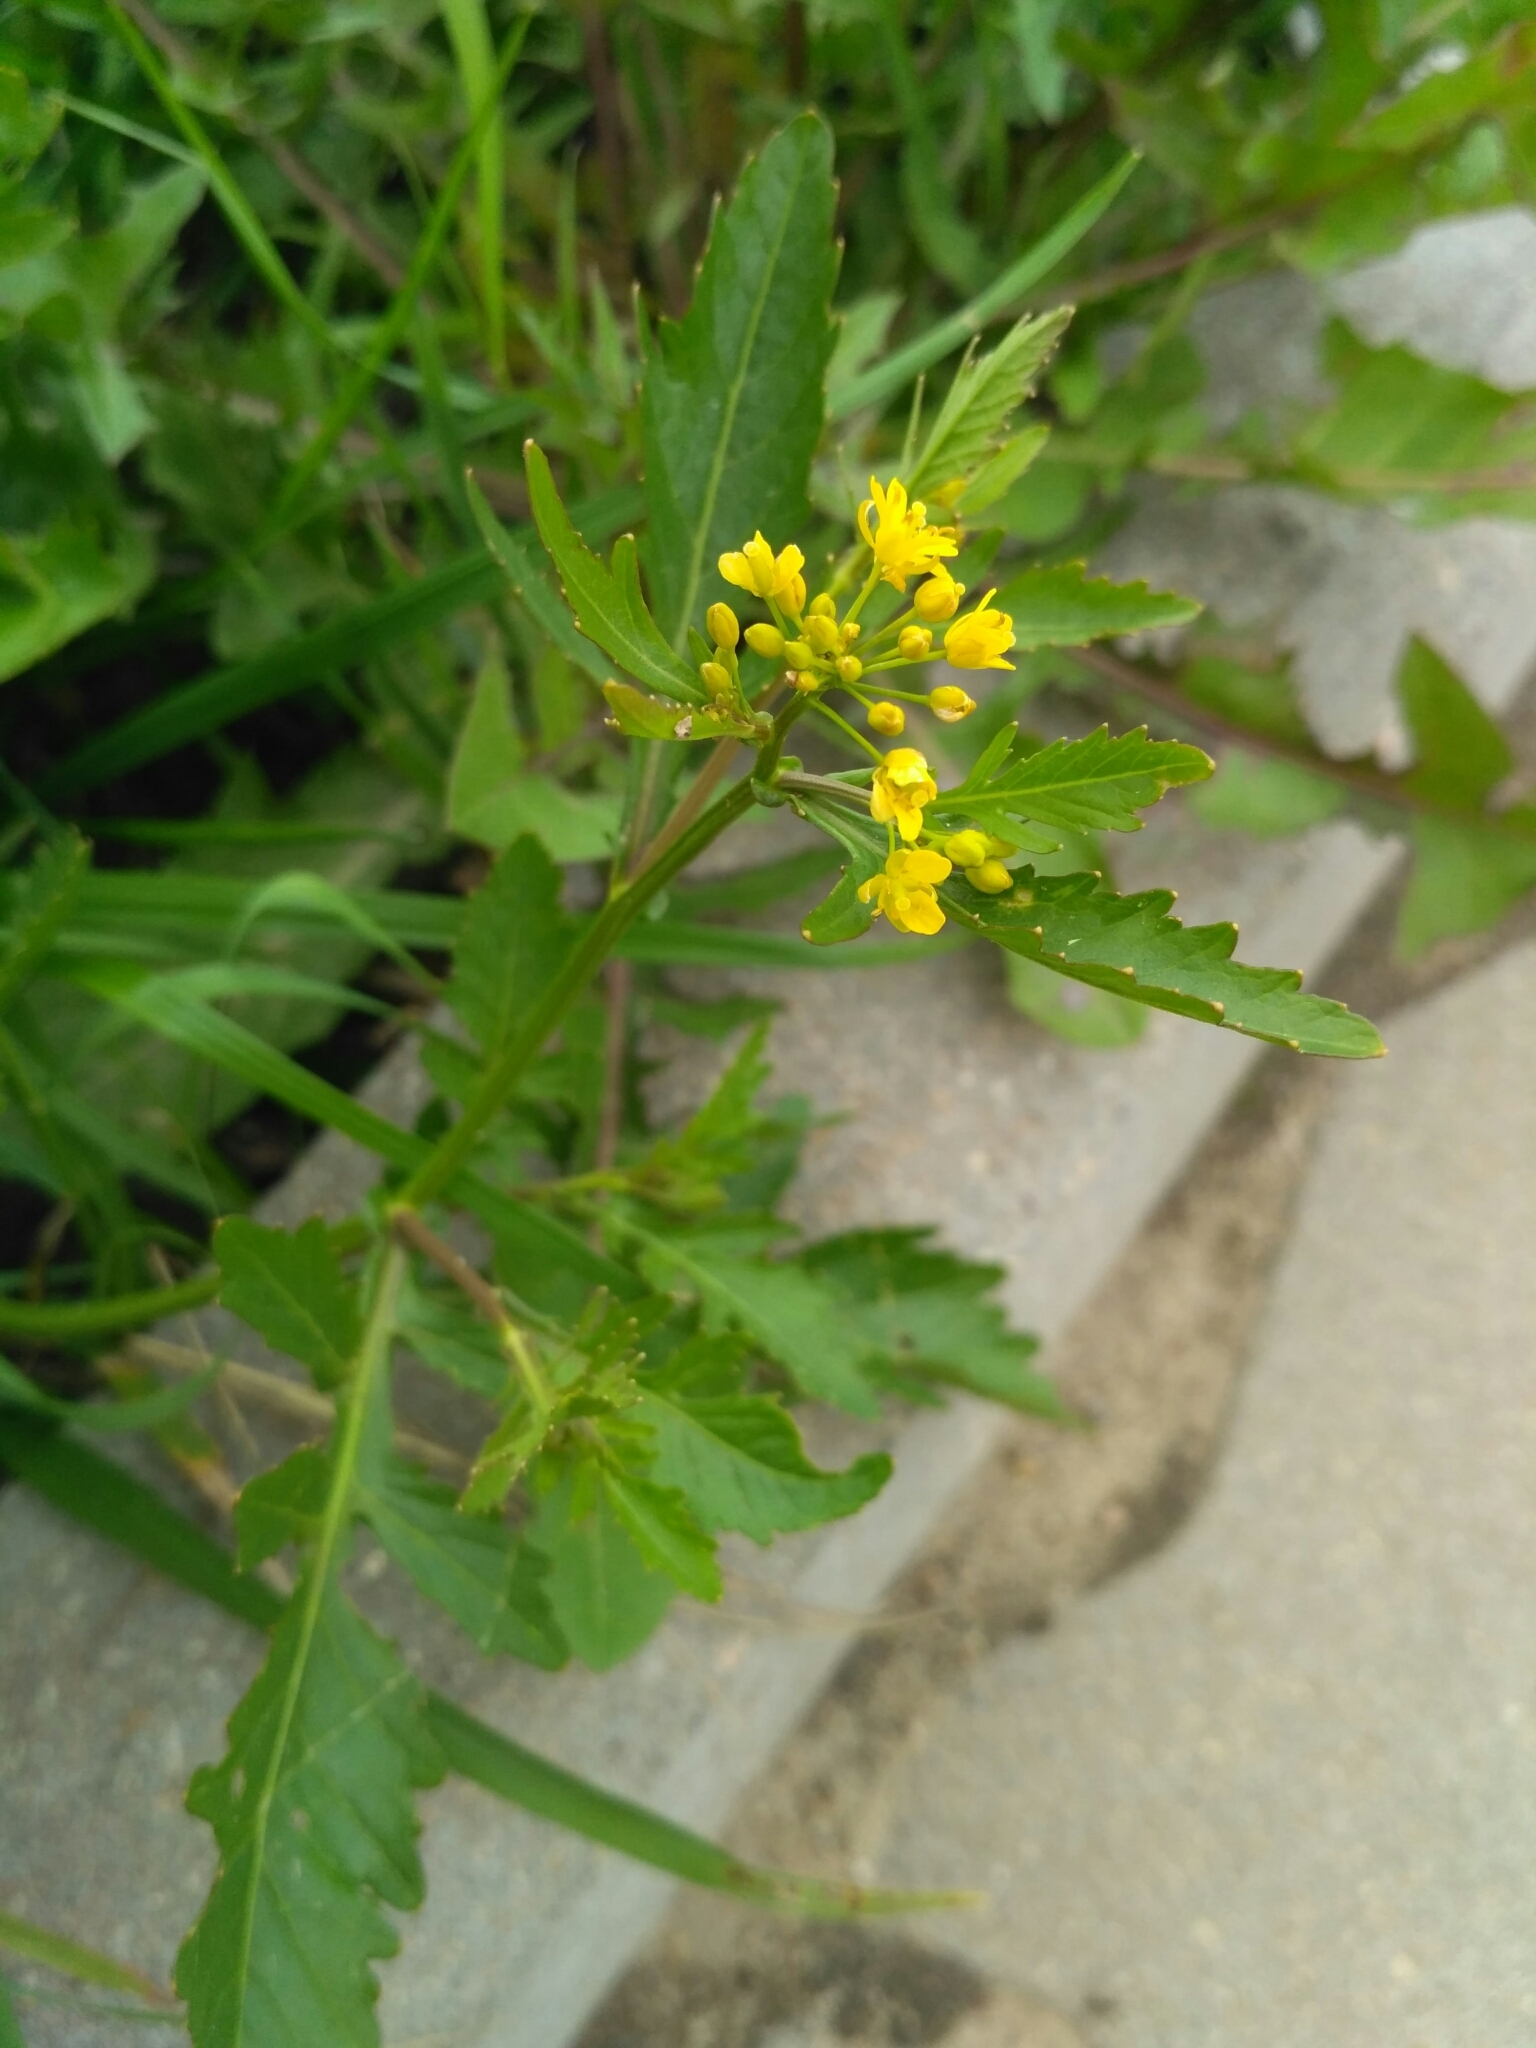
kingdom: Plantae
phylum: Tracheophyta
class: Magnoliopsida
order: Brassicales
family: Brassicaceae
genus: Rorippa
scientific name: Rorippa sylvestris
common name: Creeping yellowcress
